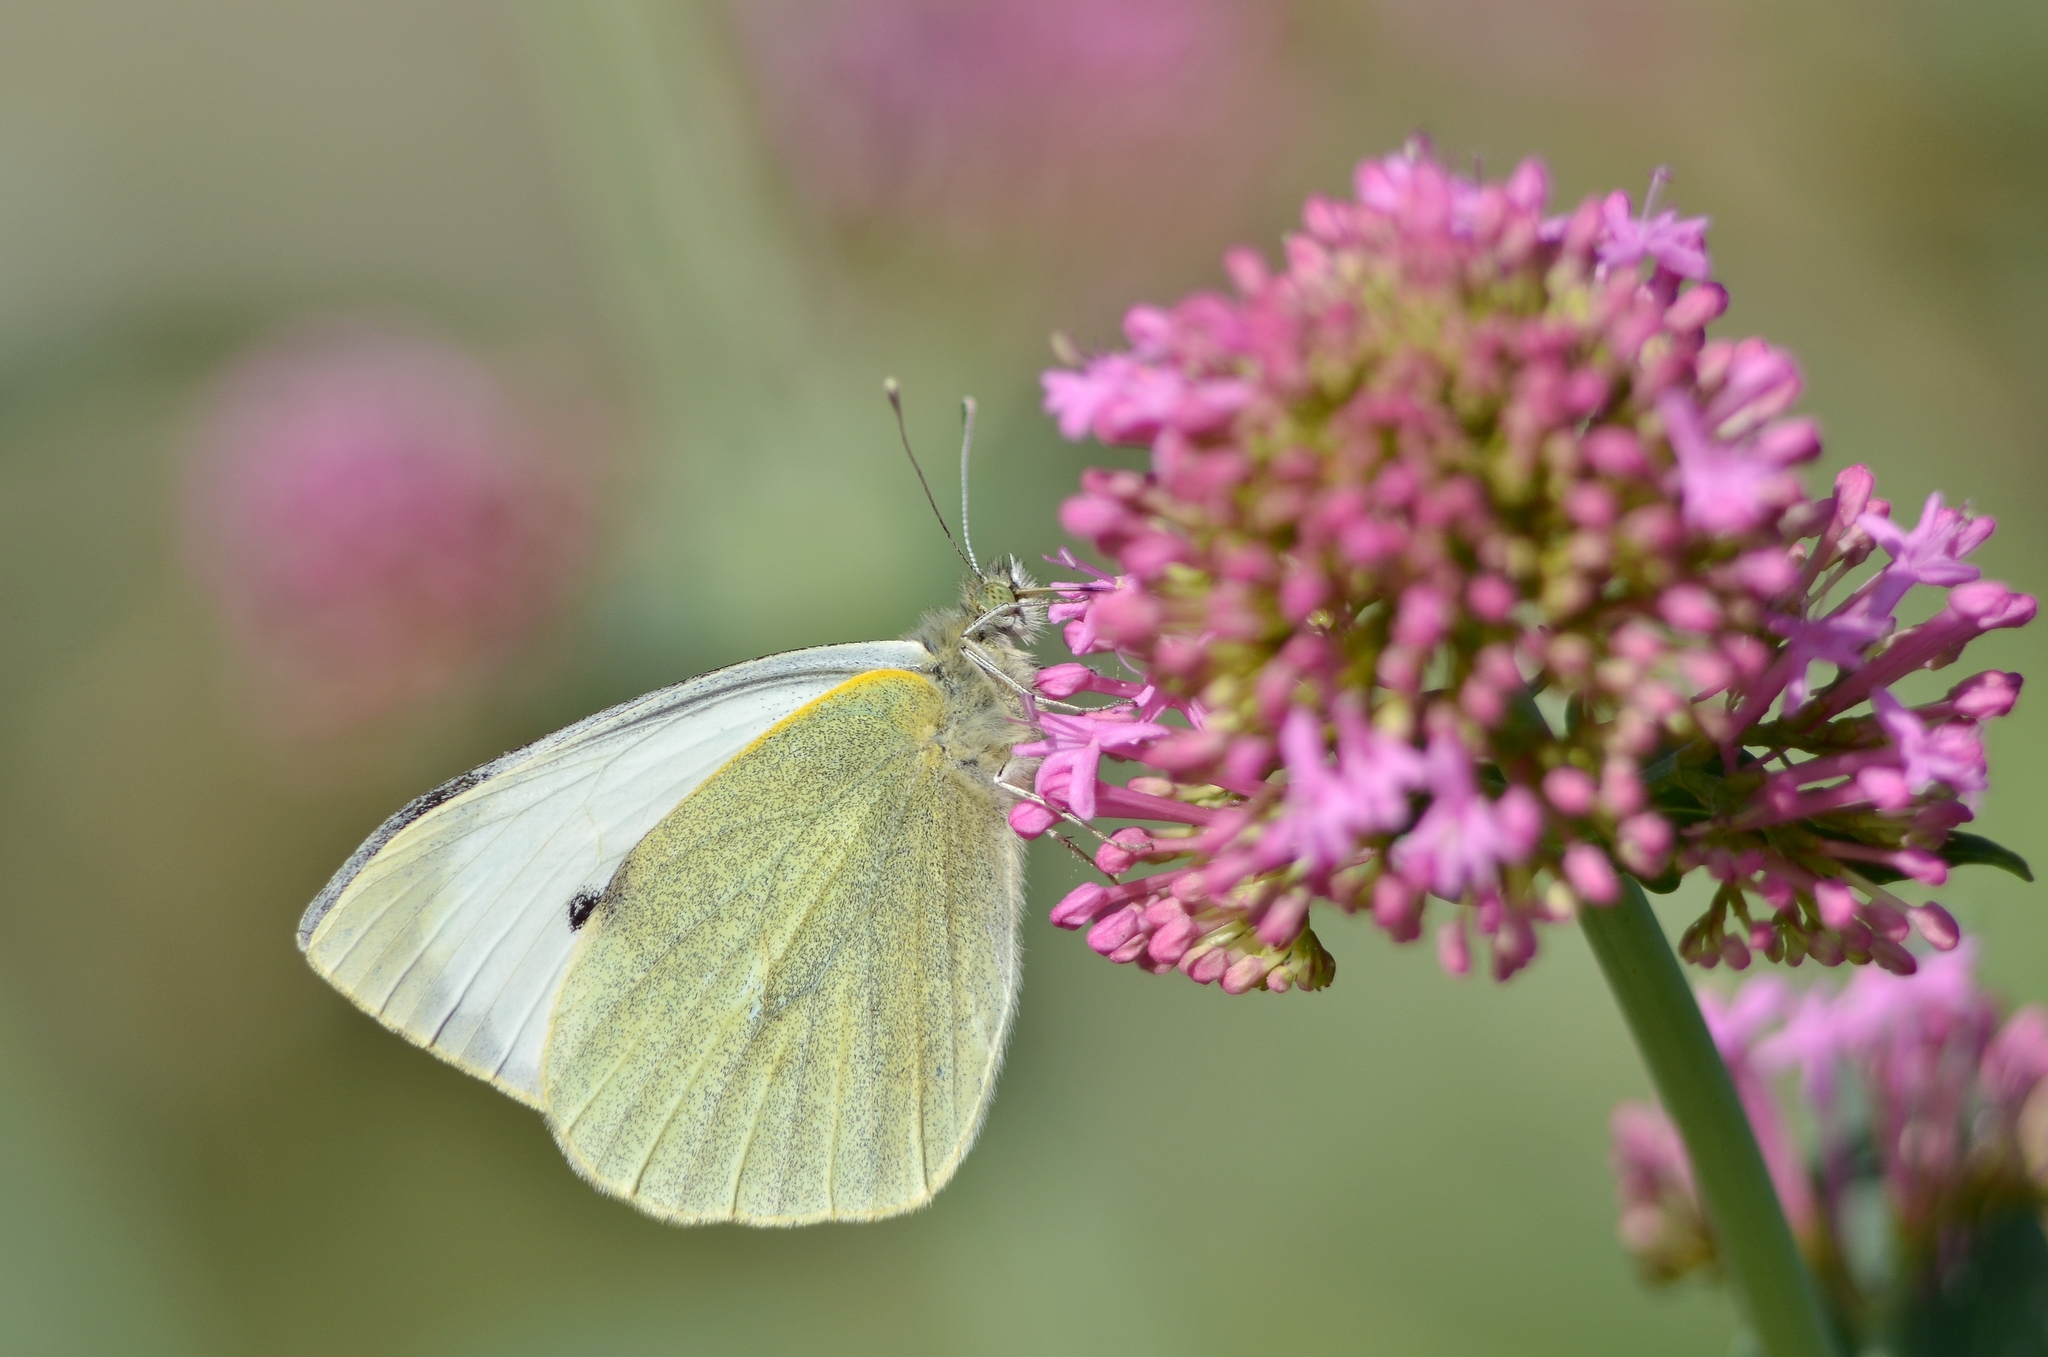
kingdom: Animalia
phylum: Arthropoda
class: Insecta
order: Lepidoptera
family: Pieridae
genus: Pieris
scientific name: Pieris brassicae
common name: Large white
